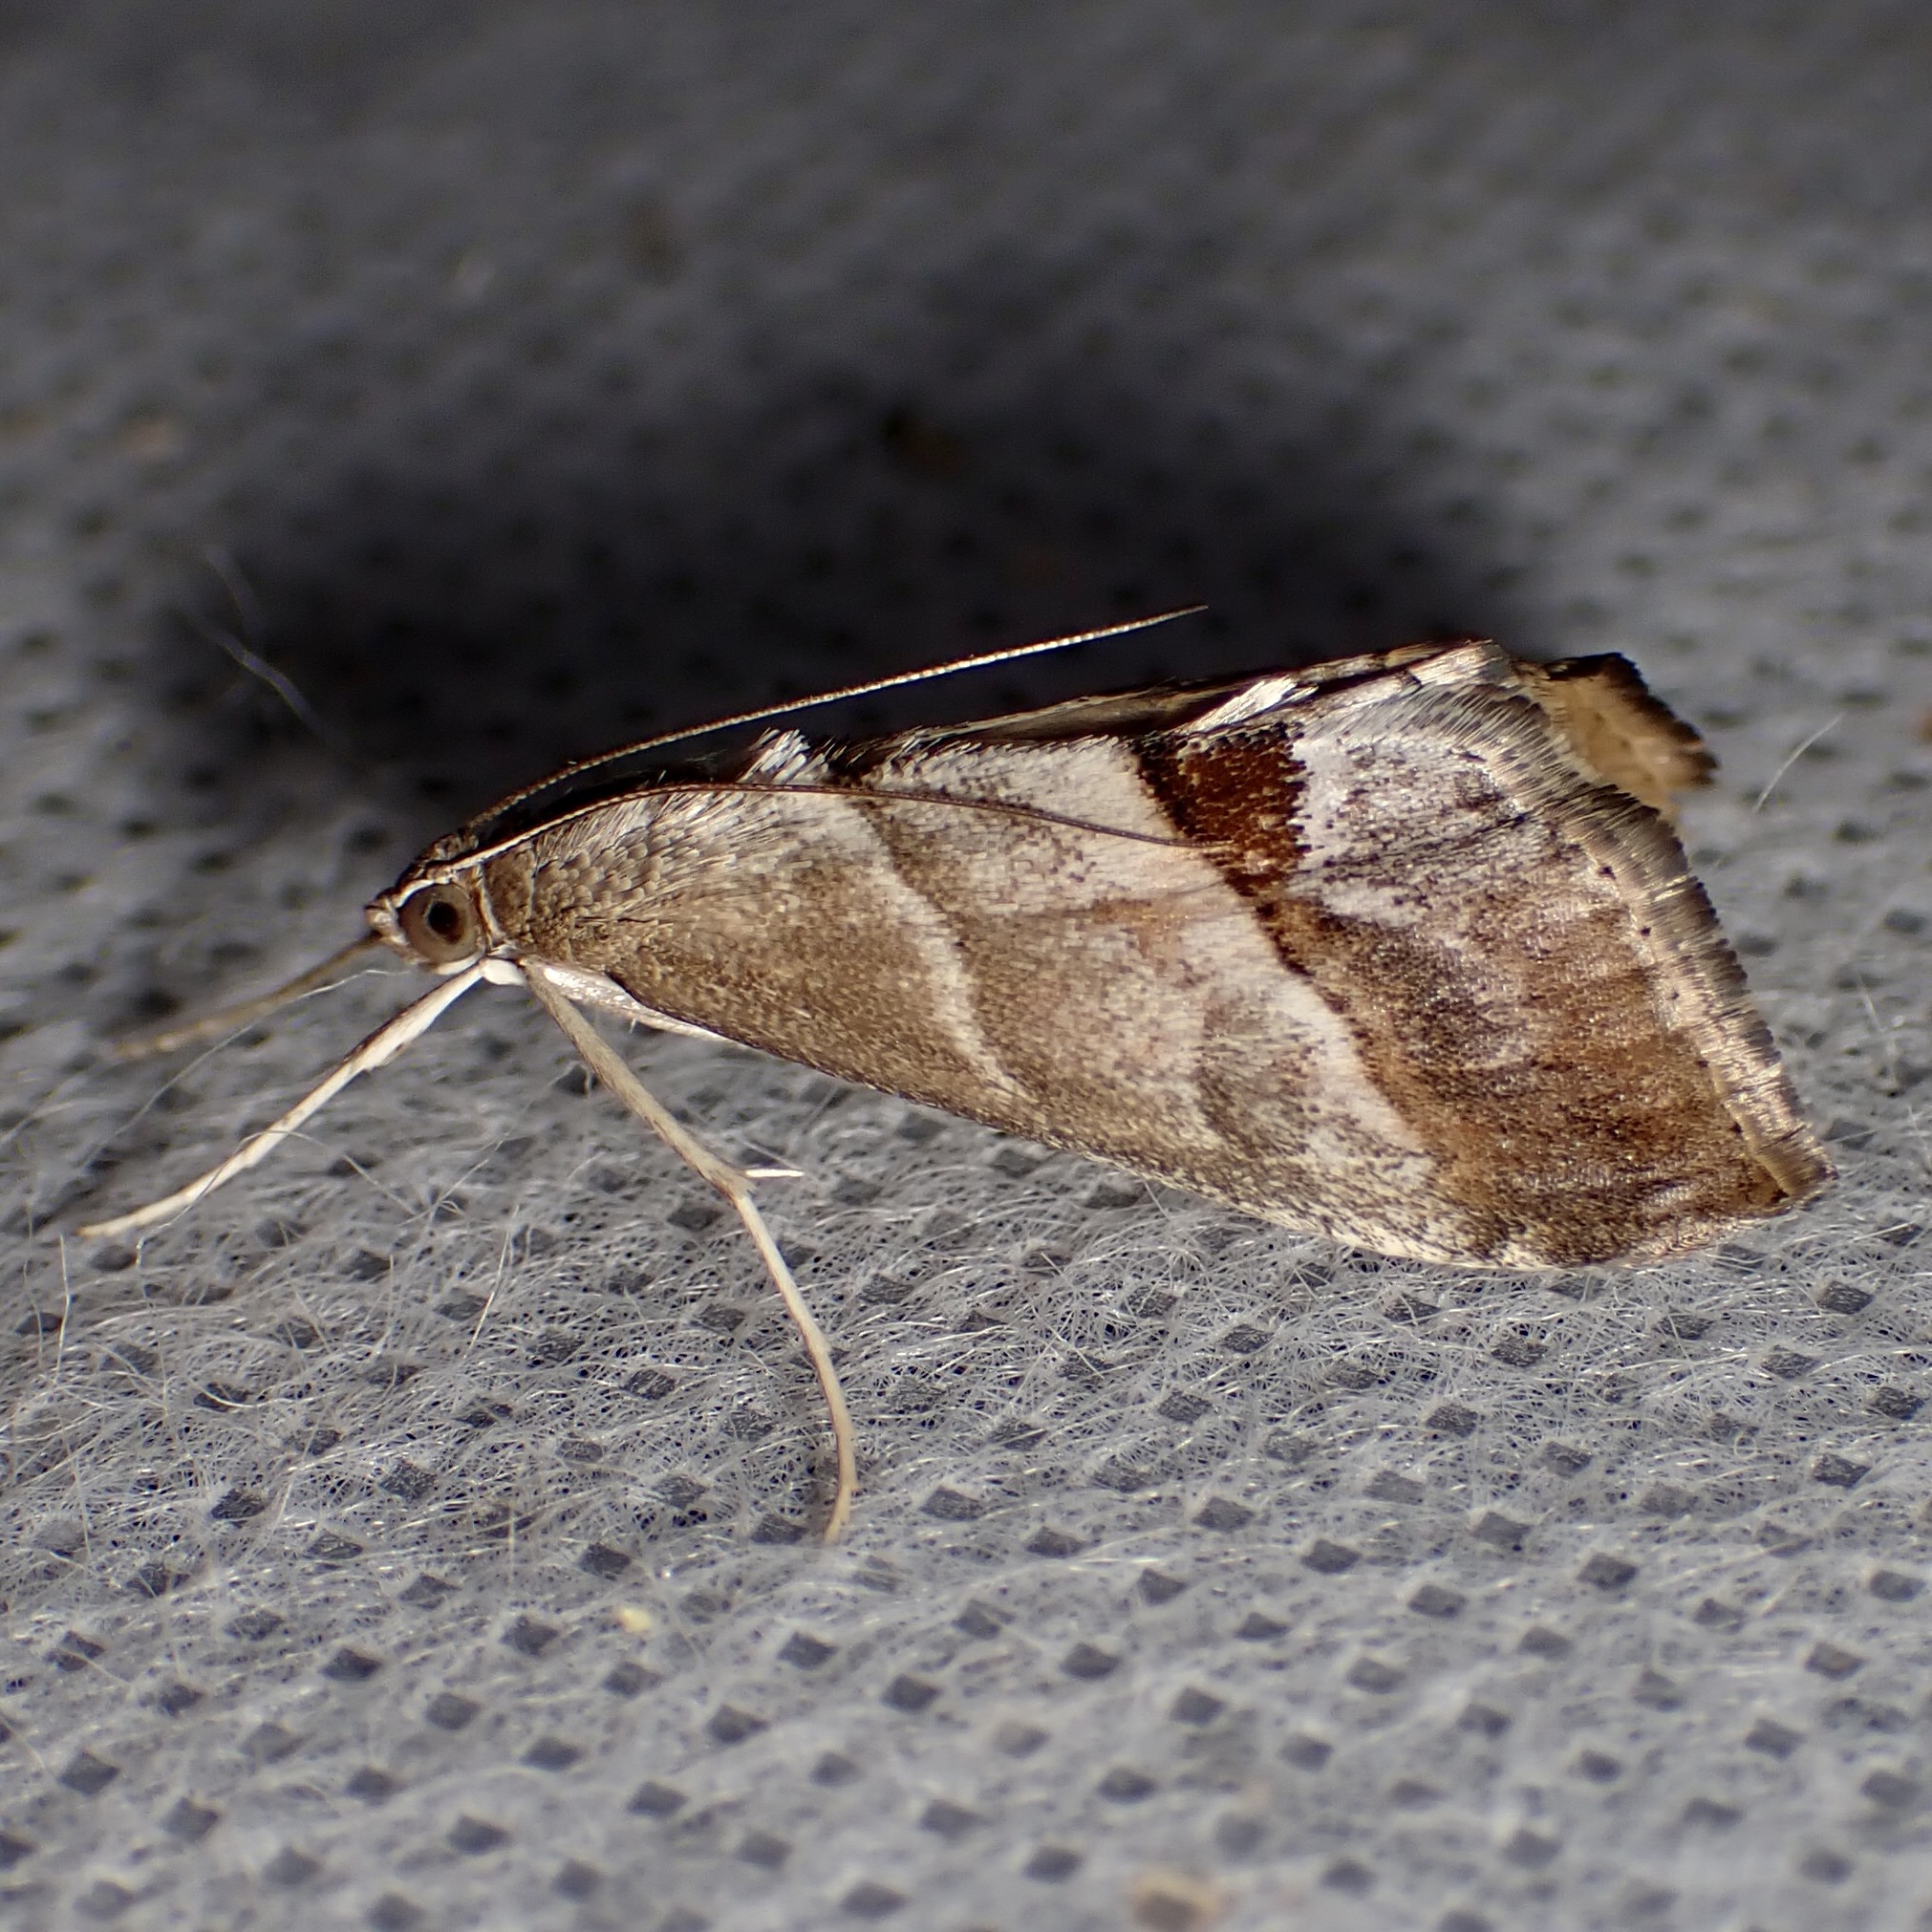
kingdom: Animalia
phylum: Arthropoda
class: Insecta
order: Lepidoptera
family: Crambidae
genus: Evergestis
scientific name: Evergestis triangulalis
